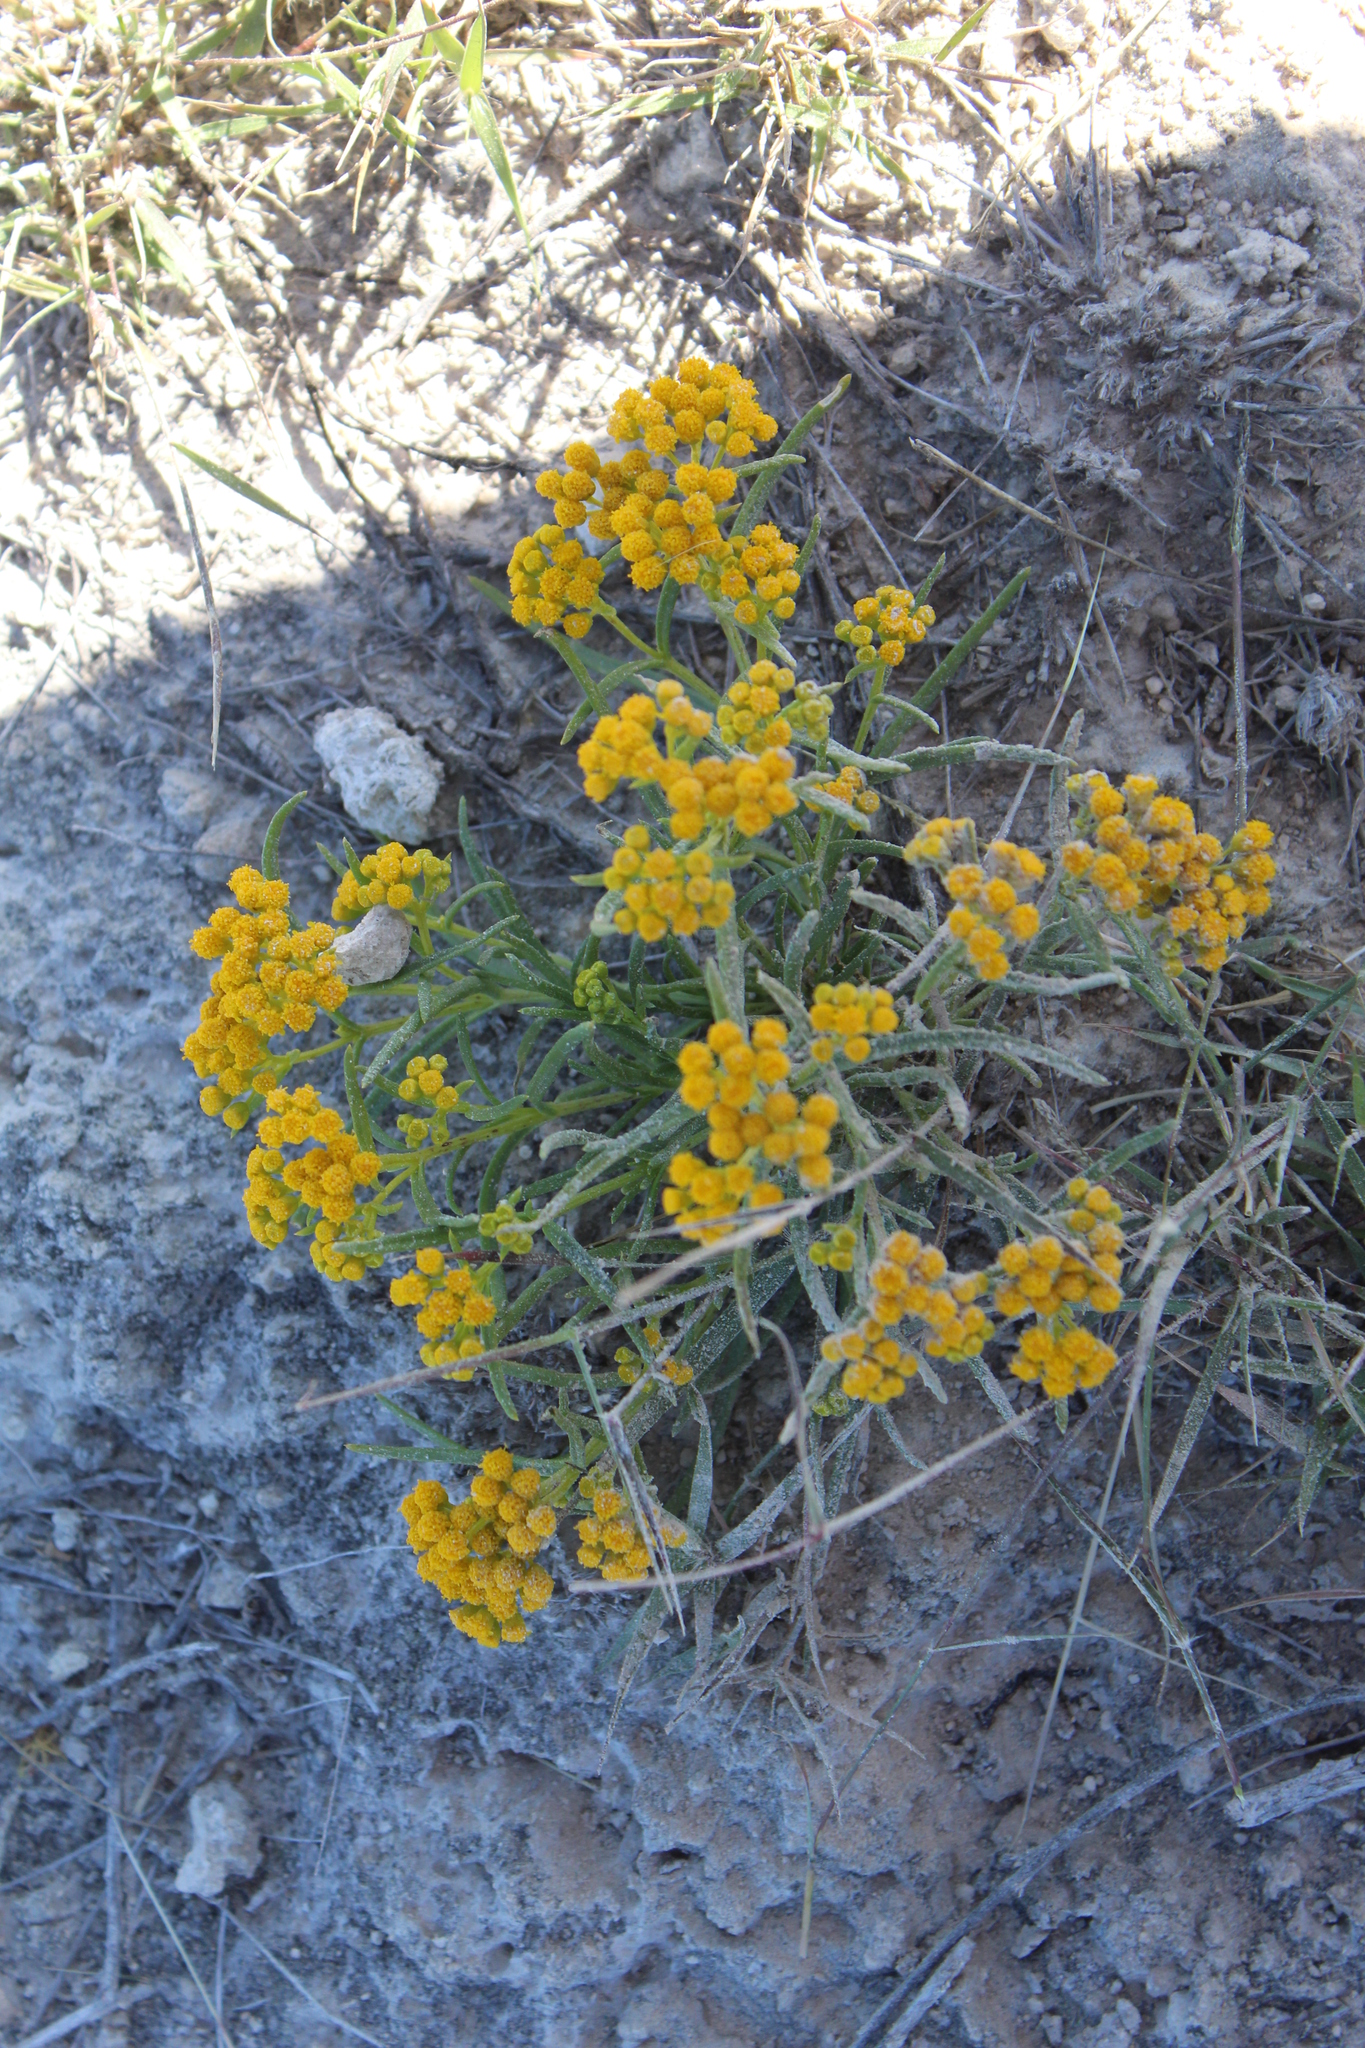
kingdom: Plantae
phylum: Tracheophyta
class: Magnoliopsida
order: Asterales
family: Asteraceae
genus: Sartwellia
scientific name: Sartwellia mexicana
